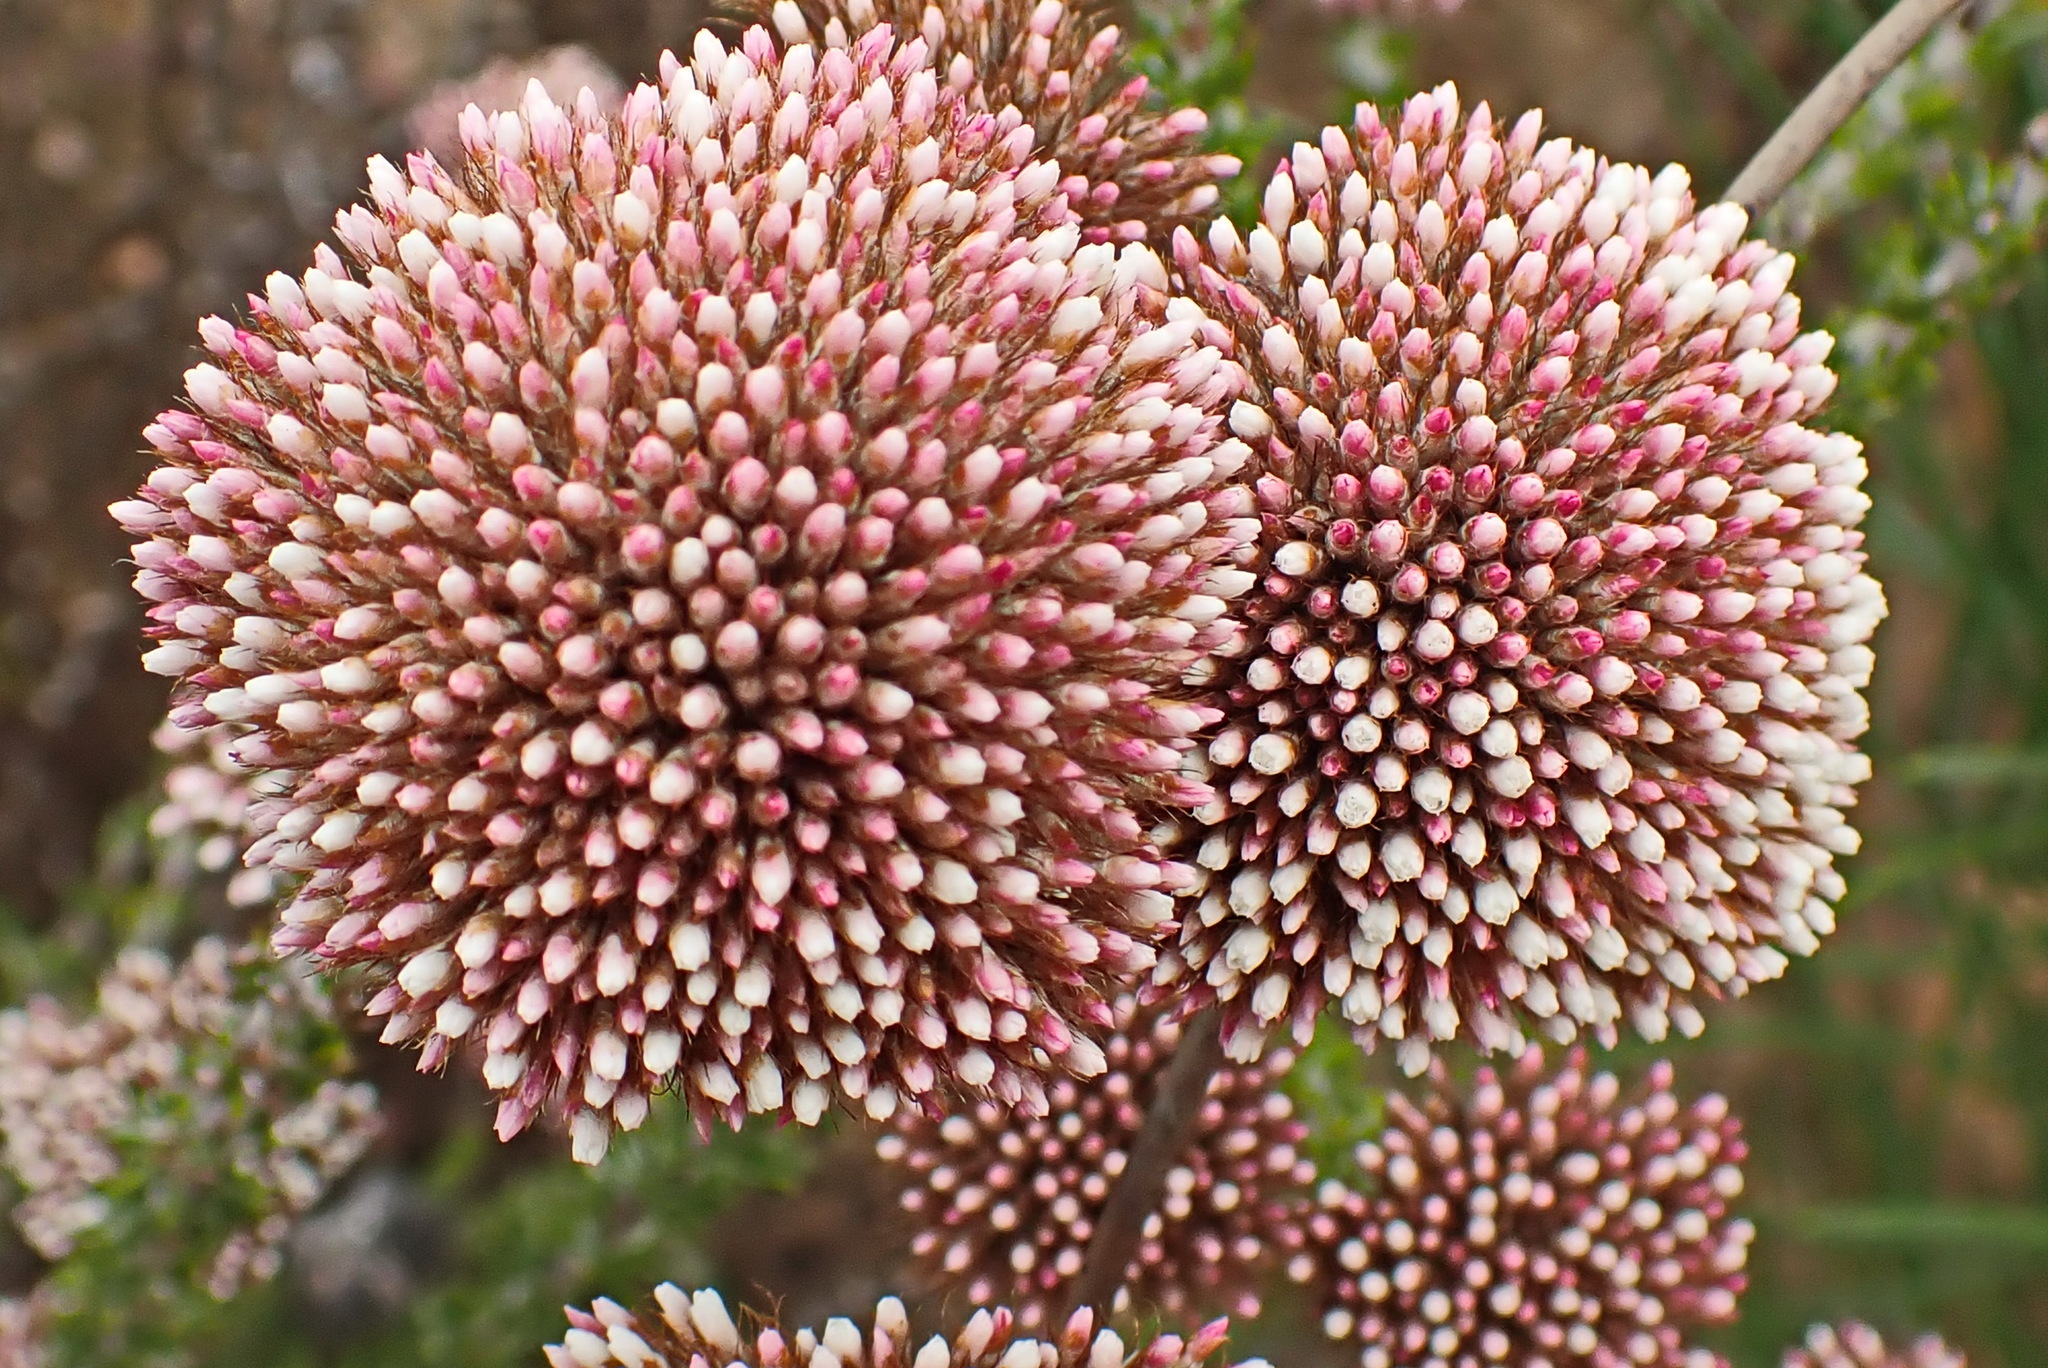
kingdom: Plantae
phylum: Tracheophyta
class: Magnoliopsida
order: Asterales
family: Asteraceae
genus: Metalasia
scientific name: Metalasia pungens
